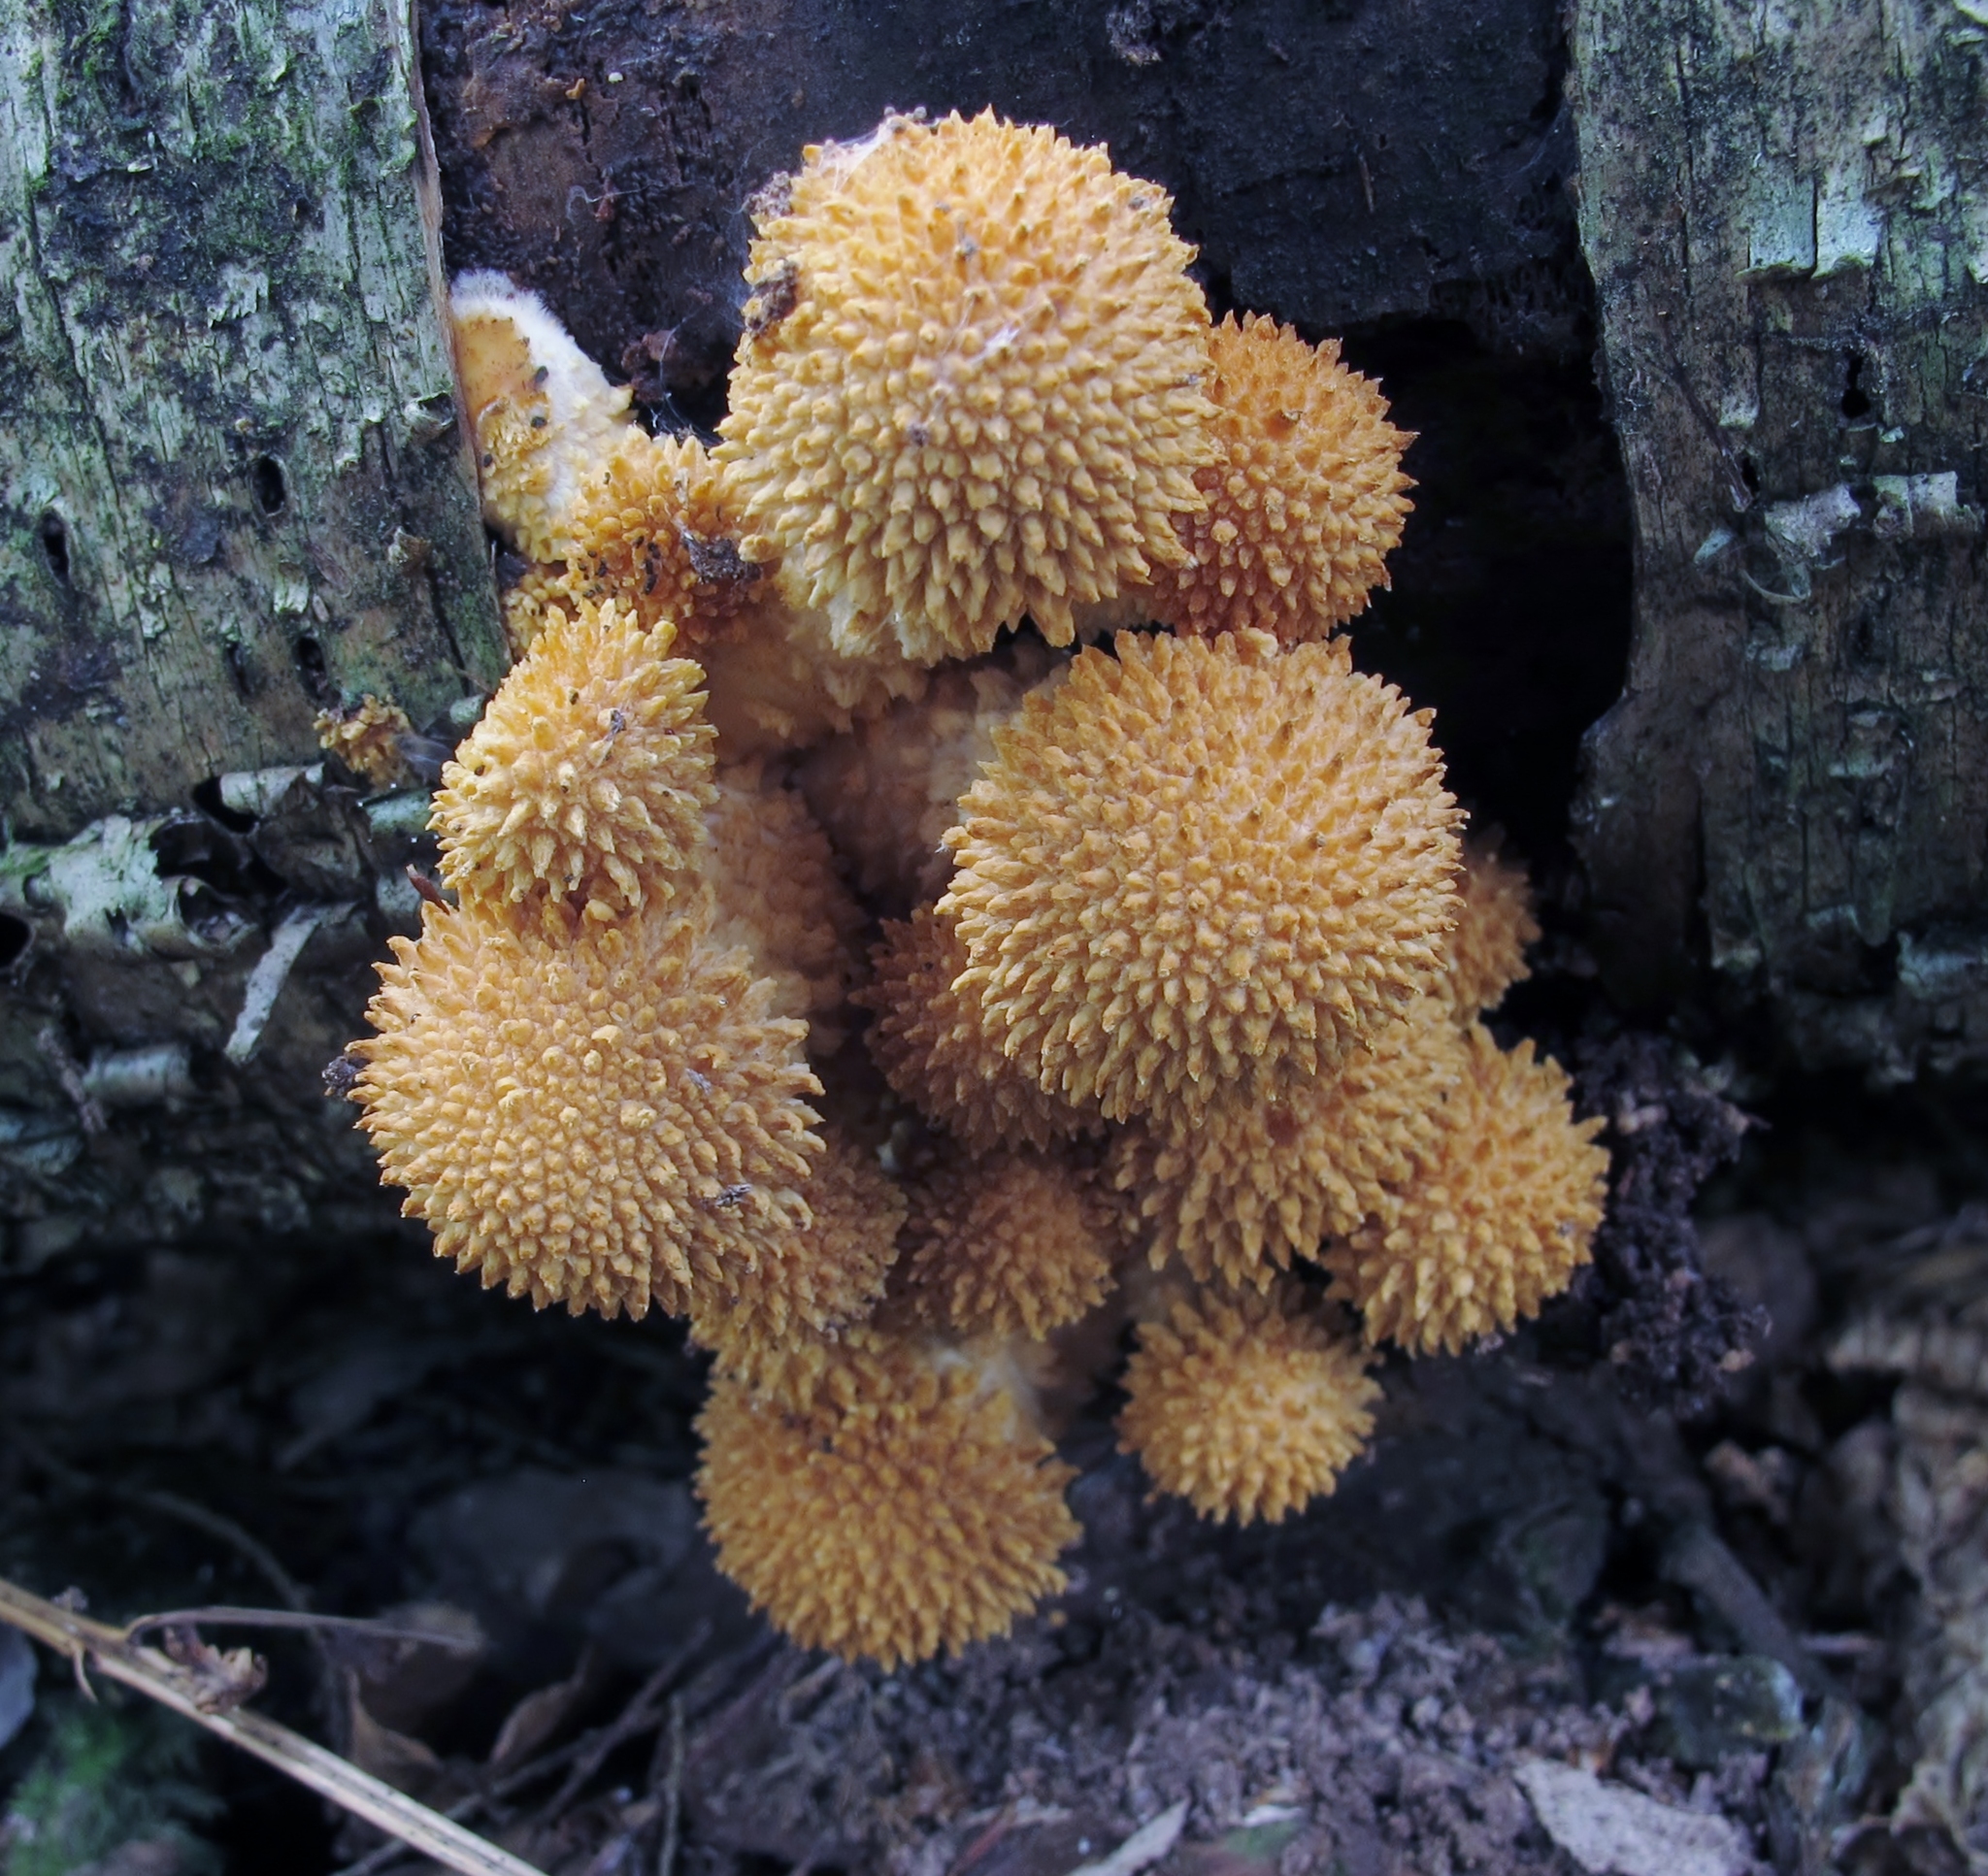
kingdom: Fungi
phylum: Basidiomycota
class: Agaricomycetes
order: Agaricales
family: Strophariaceae
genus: Pholiota
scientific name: Pholiota squarrosoides
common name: Sharp-scaly pholiota
